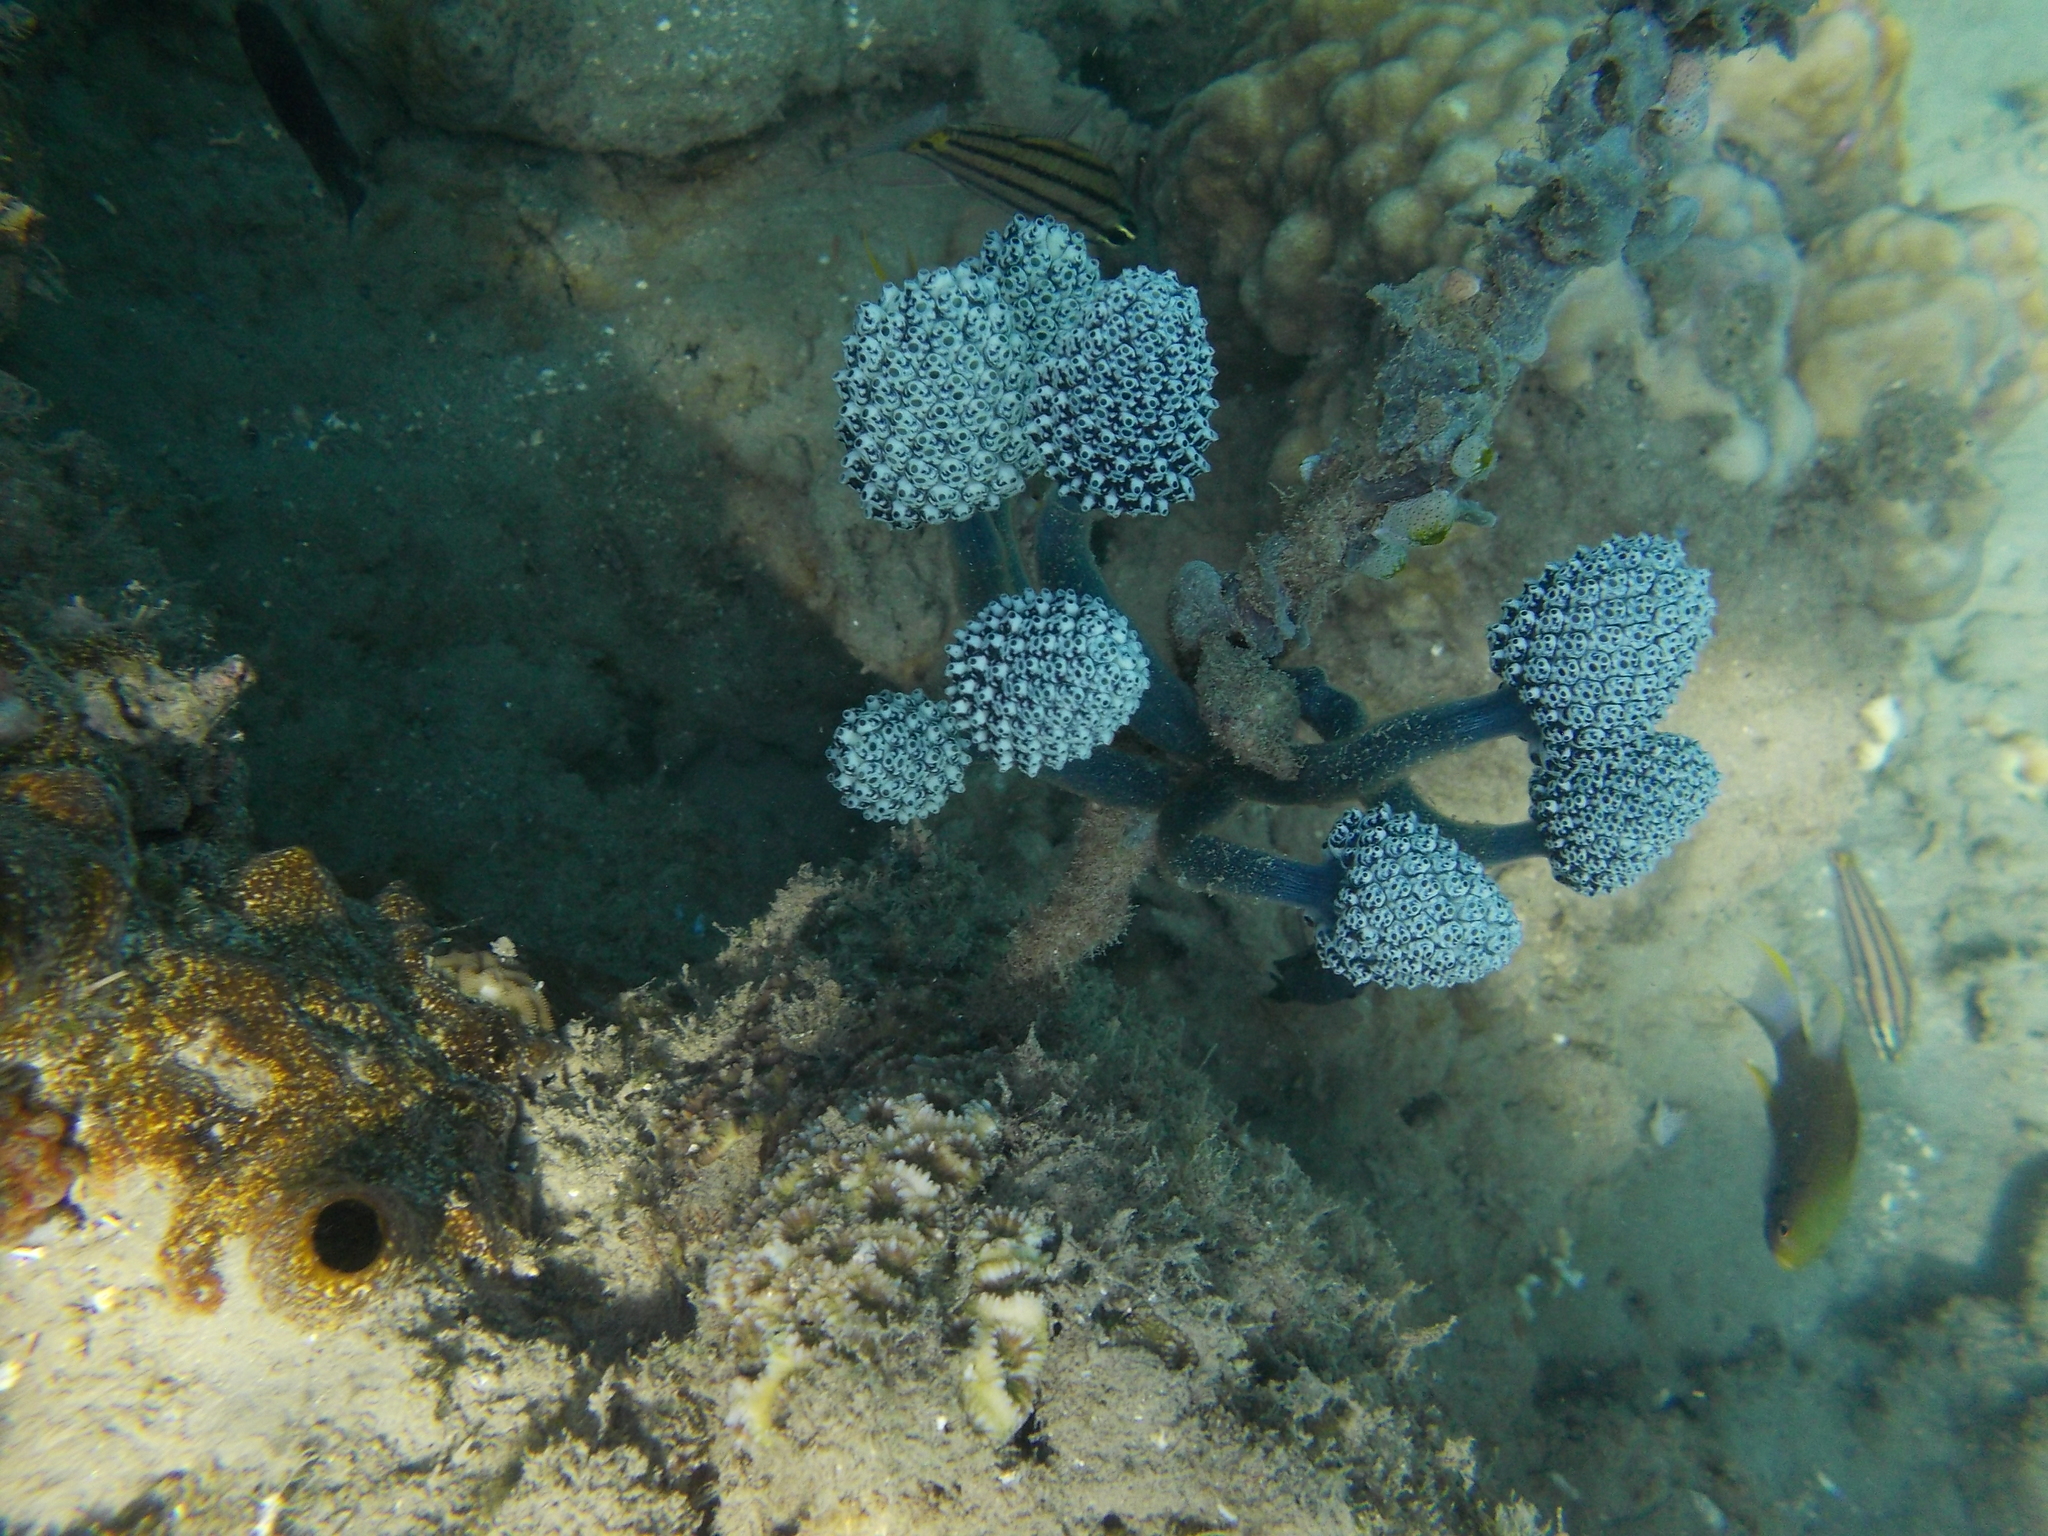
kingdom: Animalia
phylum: Chordata
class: Ascidiacea
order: Aplousobranchia
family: Clavelinidae
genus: Nephtheis
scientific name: Nephtheis fascicularis
